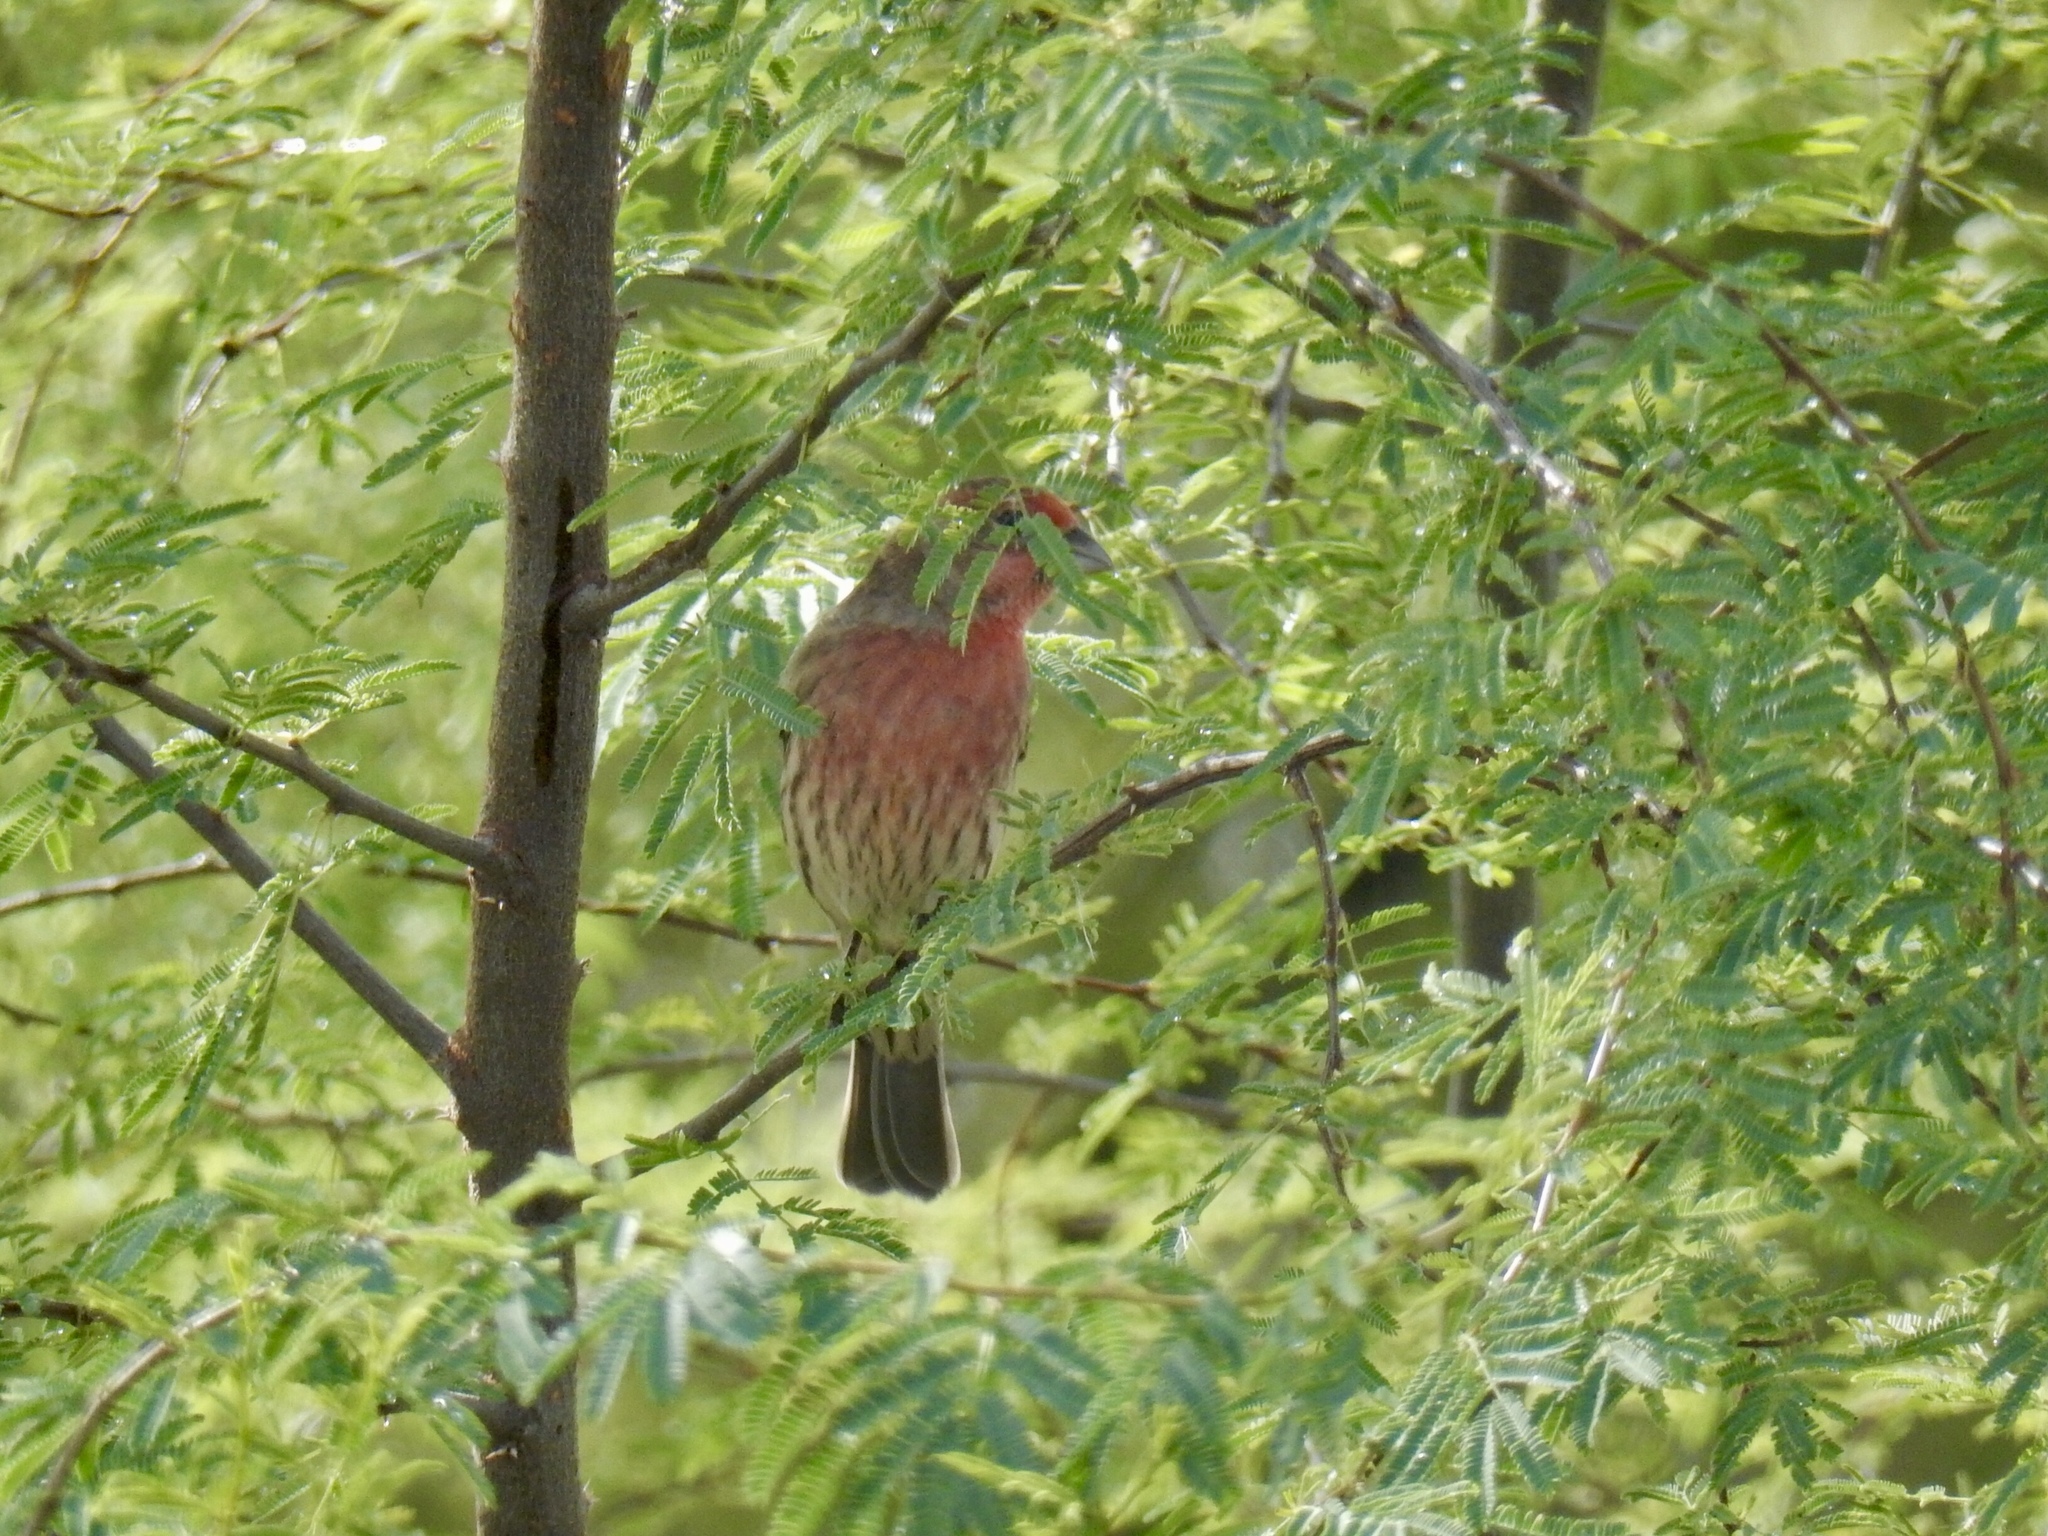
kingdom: Animalia
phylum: Chordata
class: Aves
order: Passeriformes
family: Fringillidae
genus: Haemorhous
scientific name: Haemorhous mexicanus
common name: House finch
